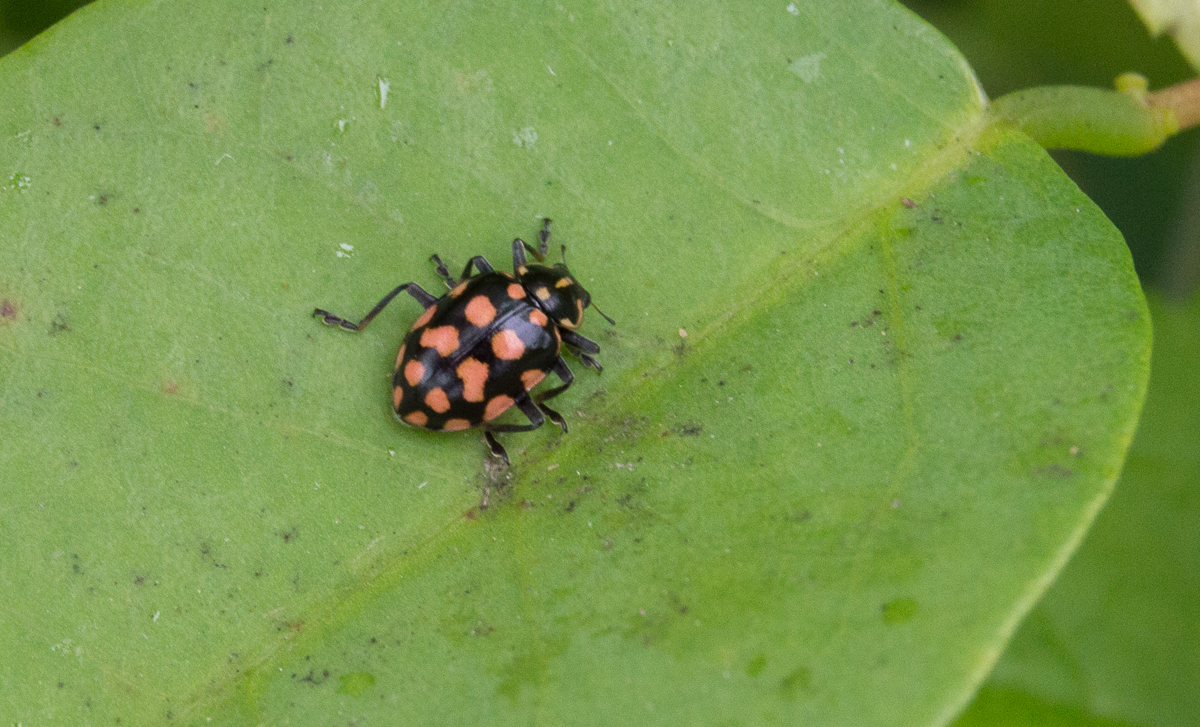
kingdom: Animalia
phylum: Arthropoda
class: Insecta
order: Coleoptera
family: Coccinellidae
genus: Coleomegilla
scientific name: Coleomegilla
